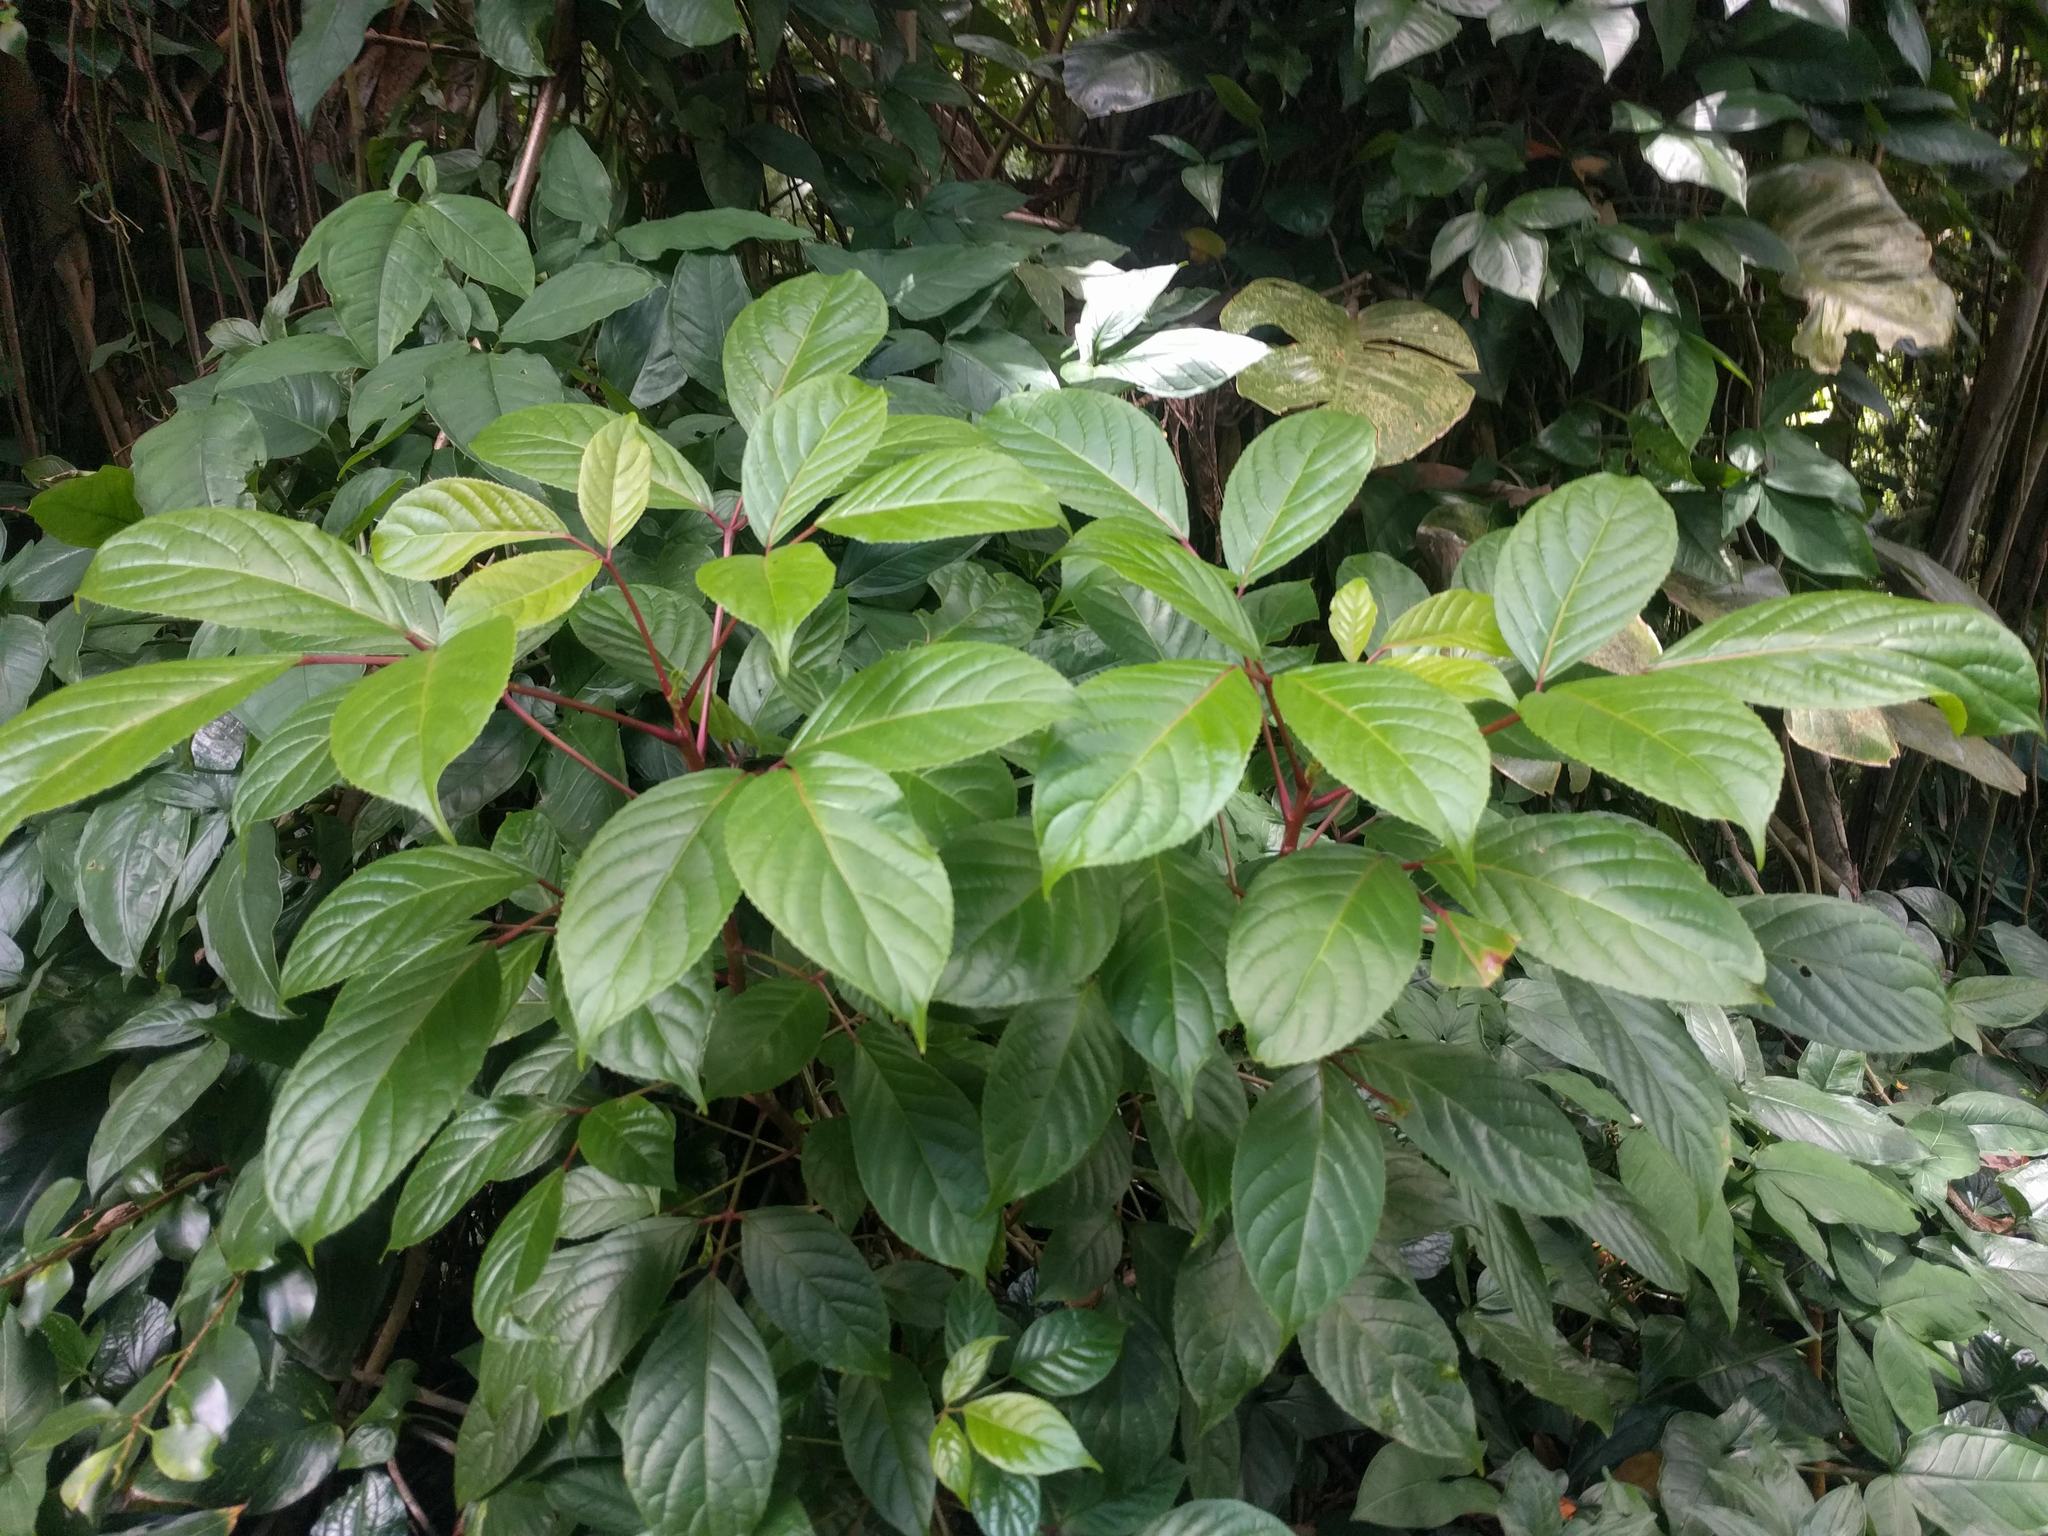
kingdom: Plantae
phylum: Tracheophyta
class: Magnoliopsida
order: Malpighiales
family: Phyllanthaceae
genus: Bischofia
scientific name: Bischofia javanica
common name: Javanese bishopwood
